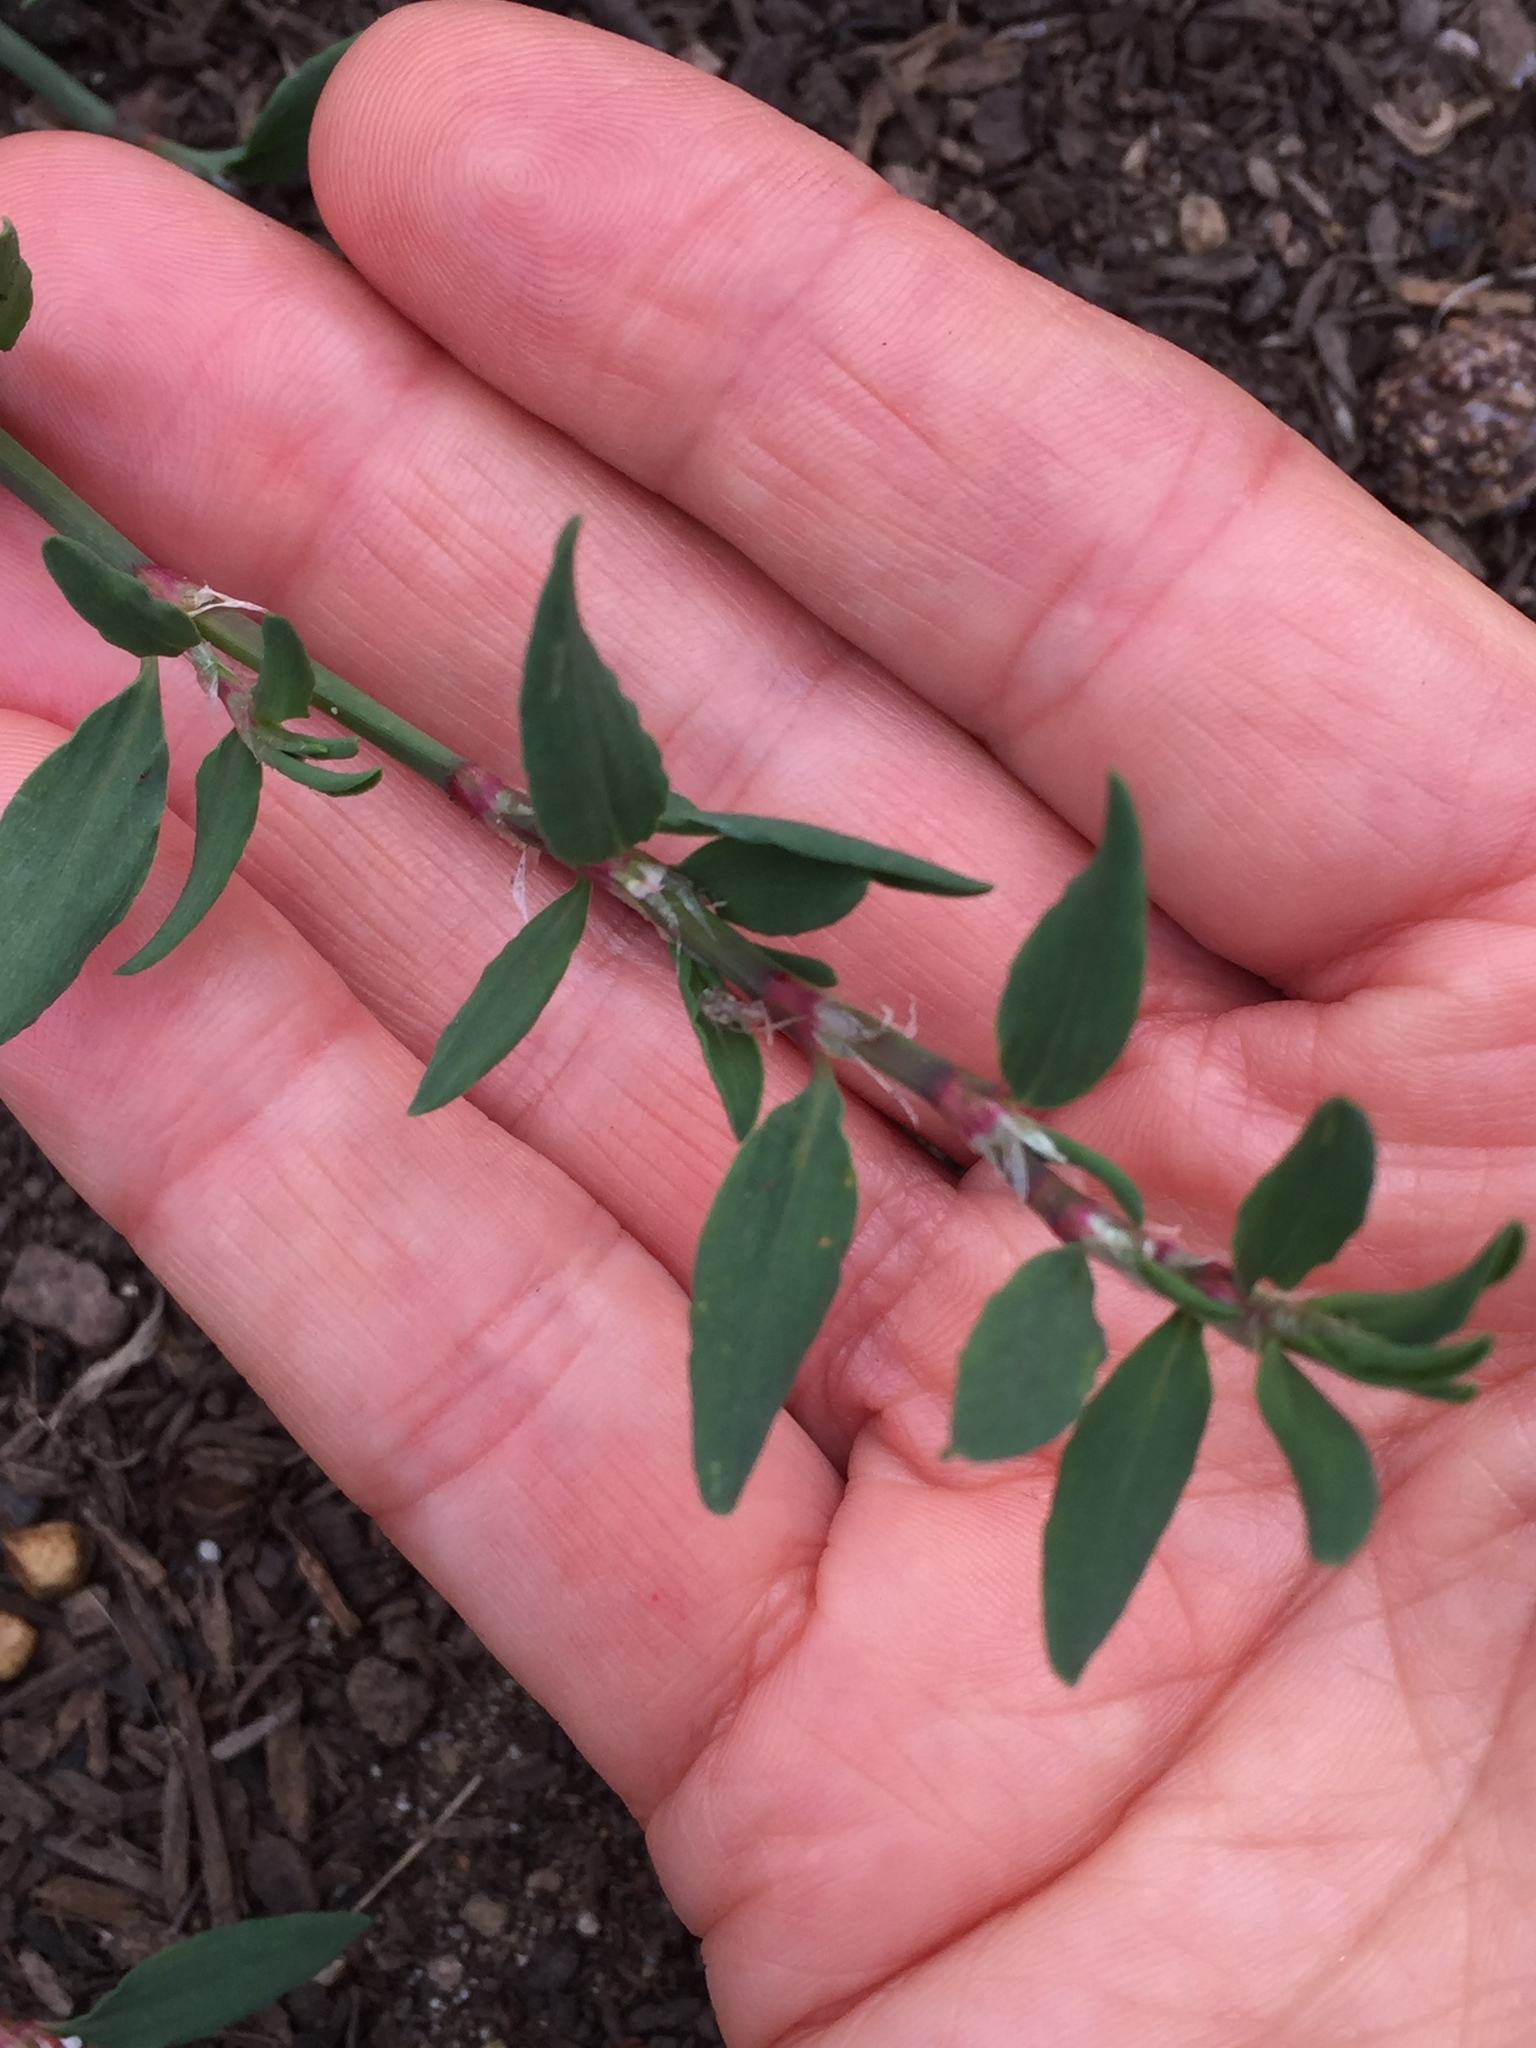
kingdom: Plantae
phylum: Tracheophyta
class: Magnoliopsida
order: Caryophyllales
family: Polygonaceae
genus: Polygonum
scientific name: Polygonum aviculare
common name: Prostrate knotweed
